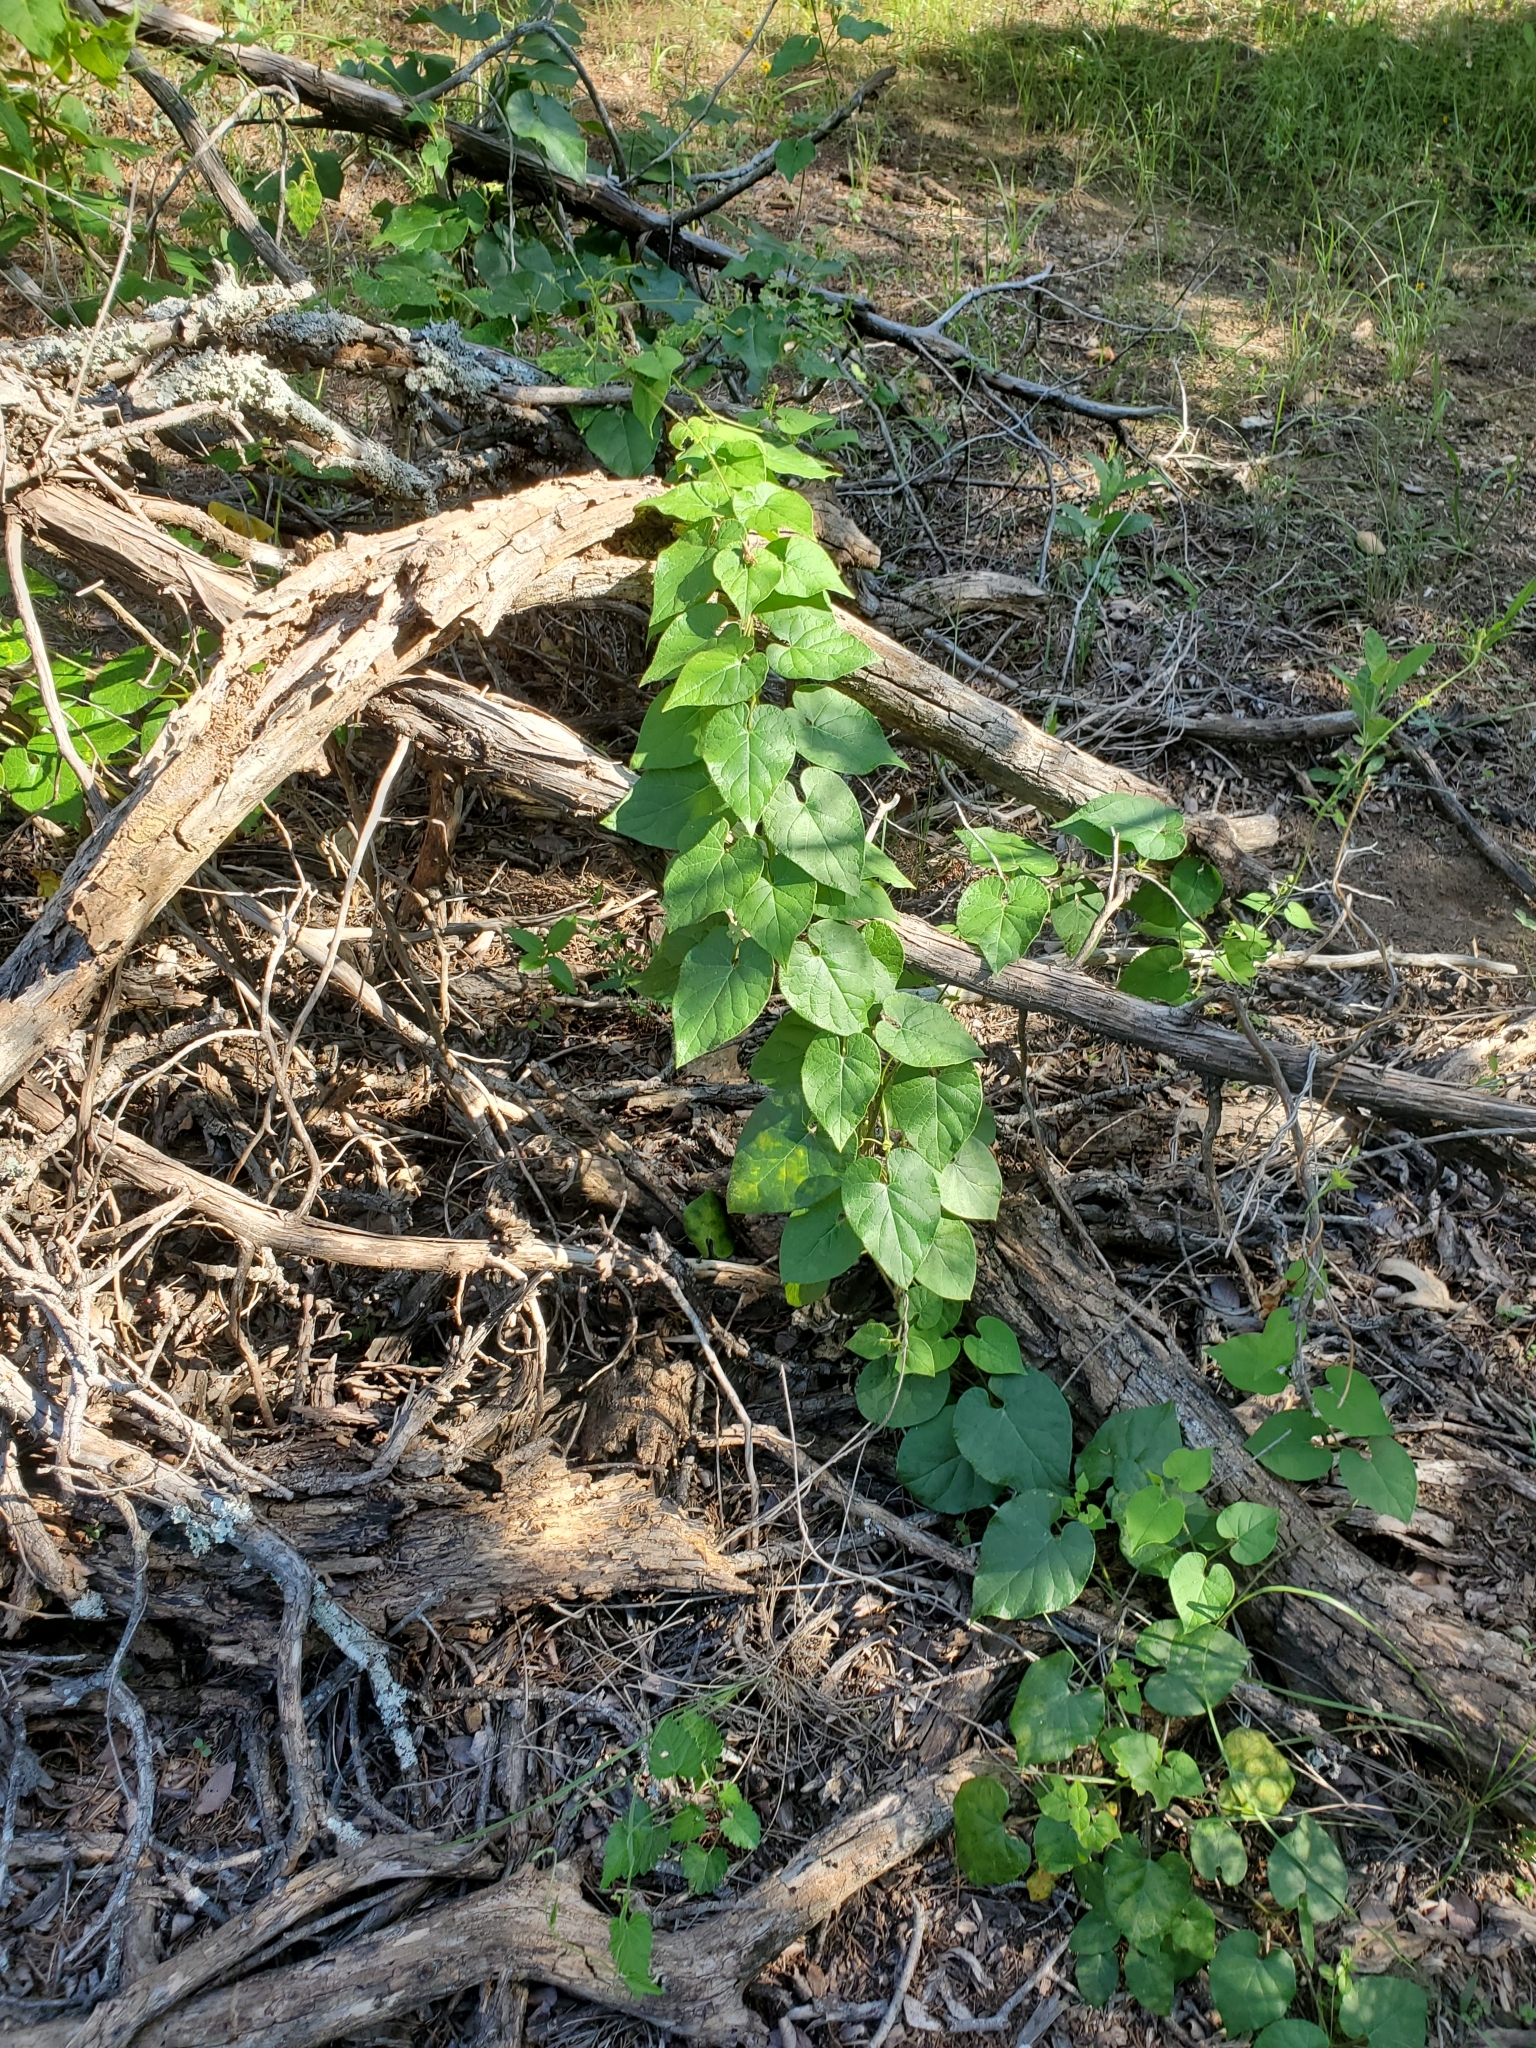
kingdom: Plantae
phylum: Tracheophyta
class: Magnoliopsida
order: Gentianales
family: Apocynaceae
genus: Dictyanthus
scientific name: Dictyanthus reticulatus
